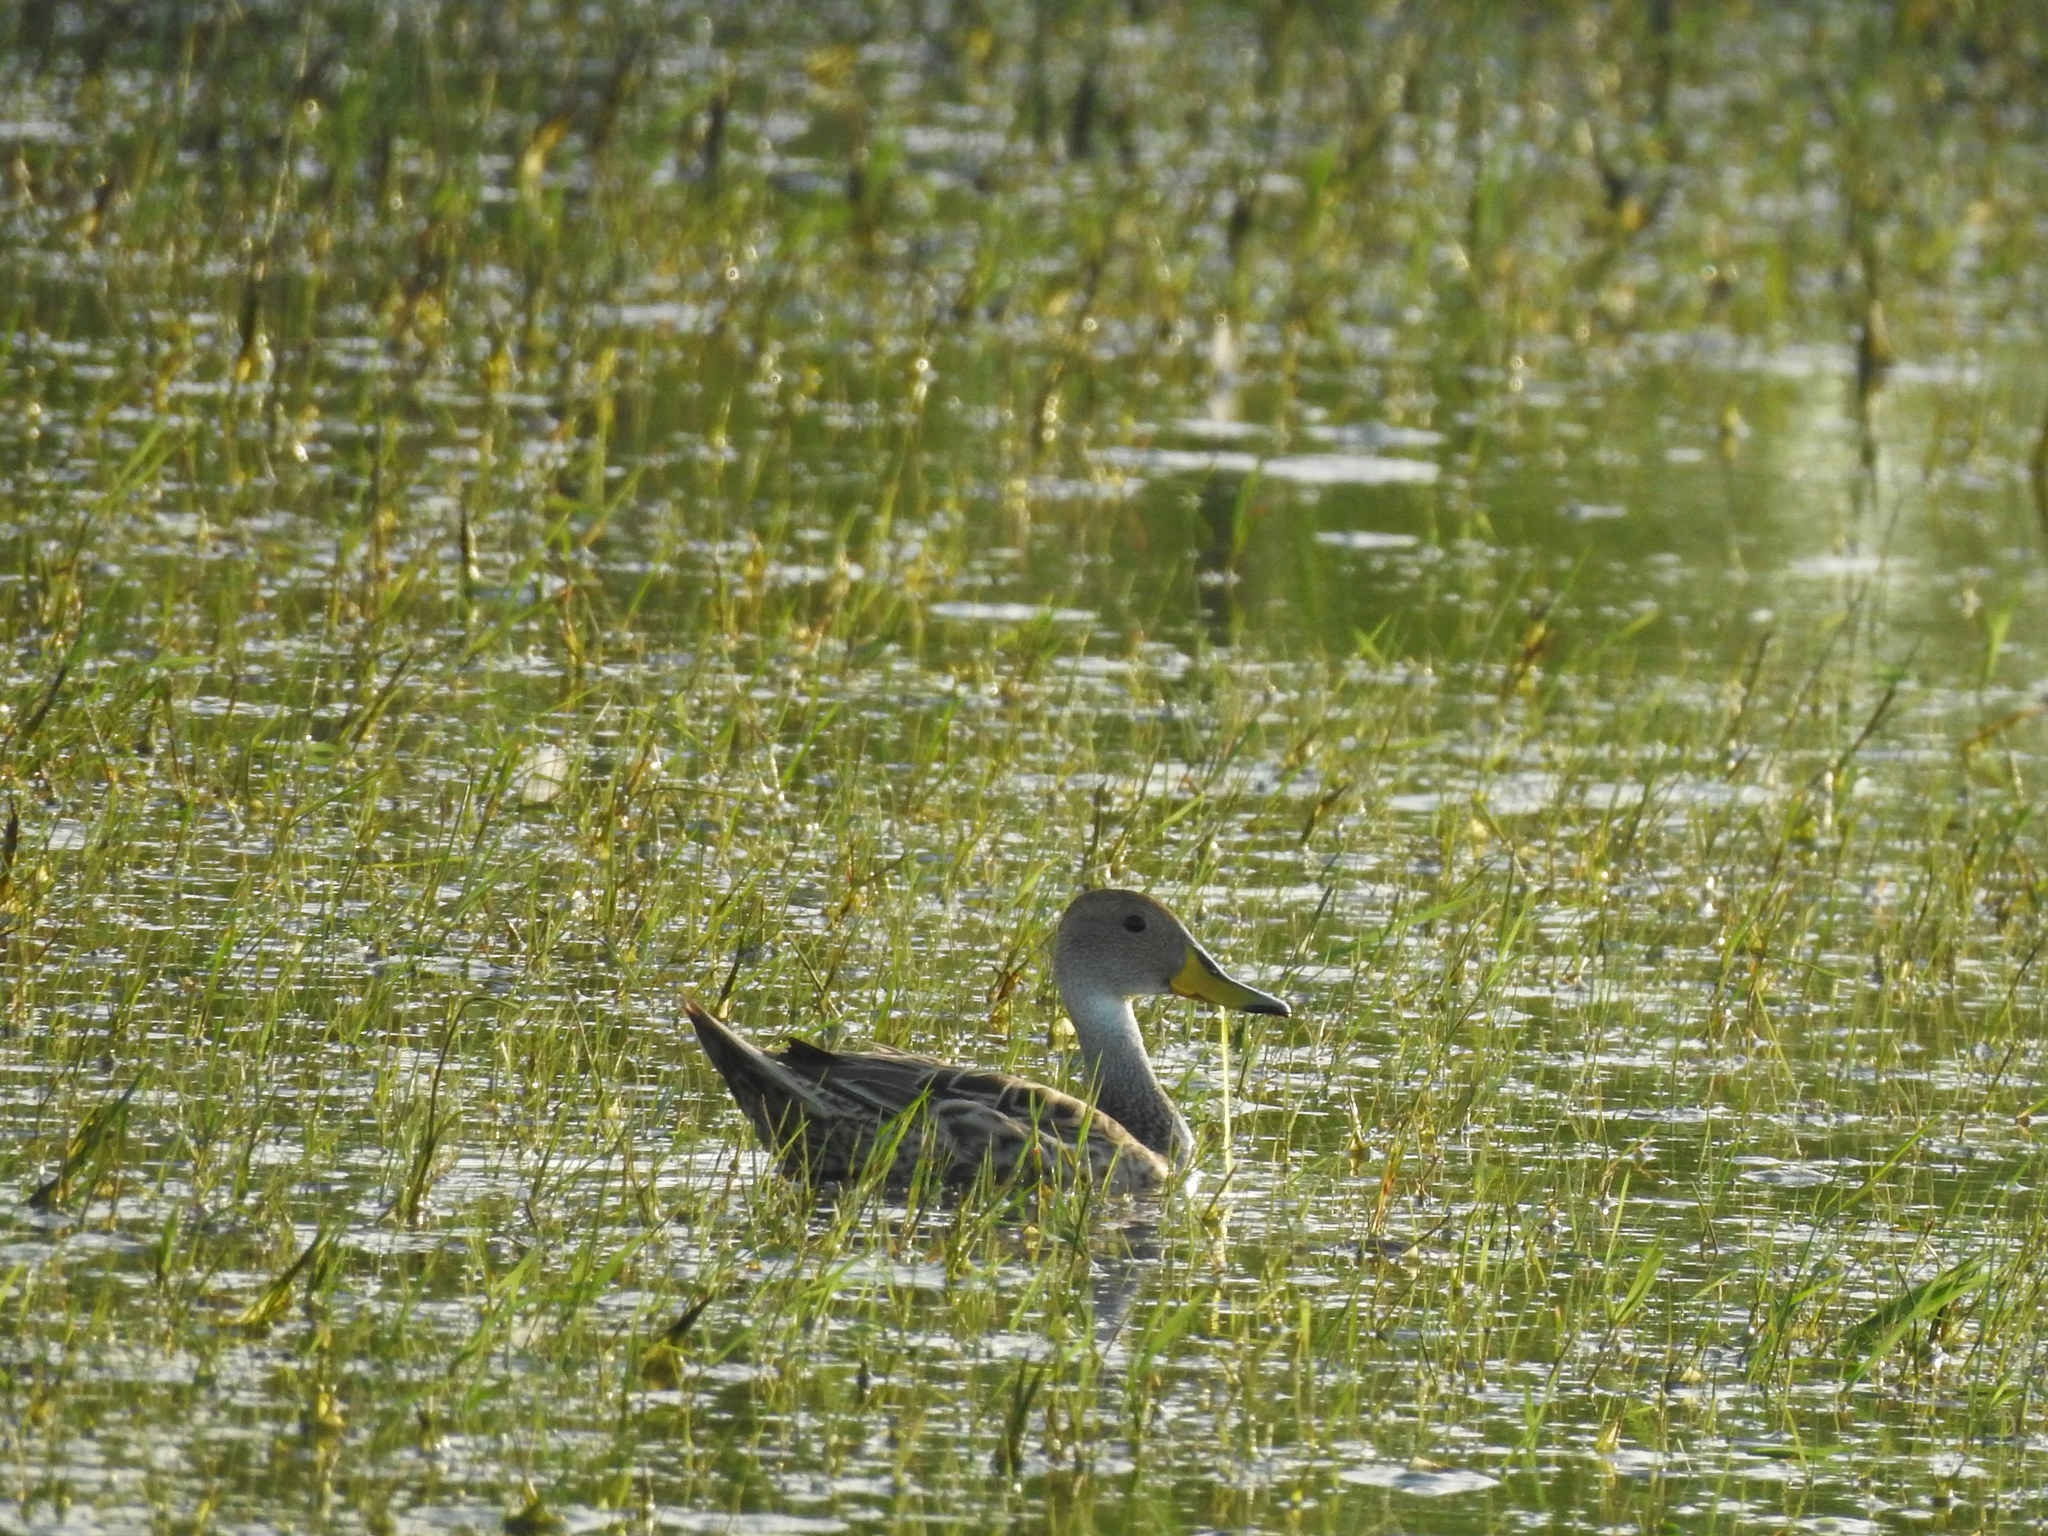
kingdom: Animalia
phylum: Chordata
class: Aves
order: Anseriformes
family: Anatidae
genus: Anas
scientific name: Anas georgica
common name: Yellow-billed pintail
